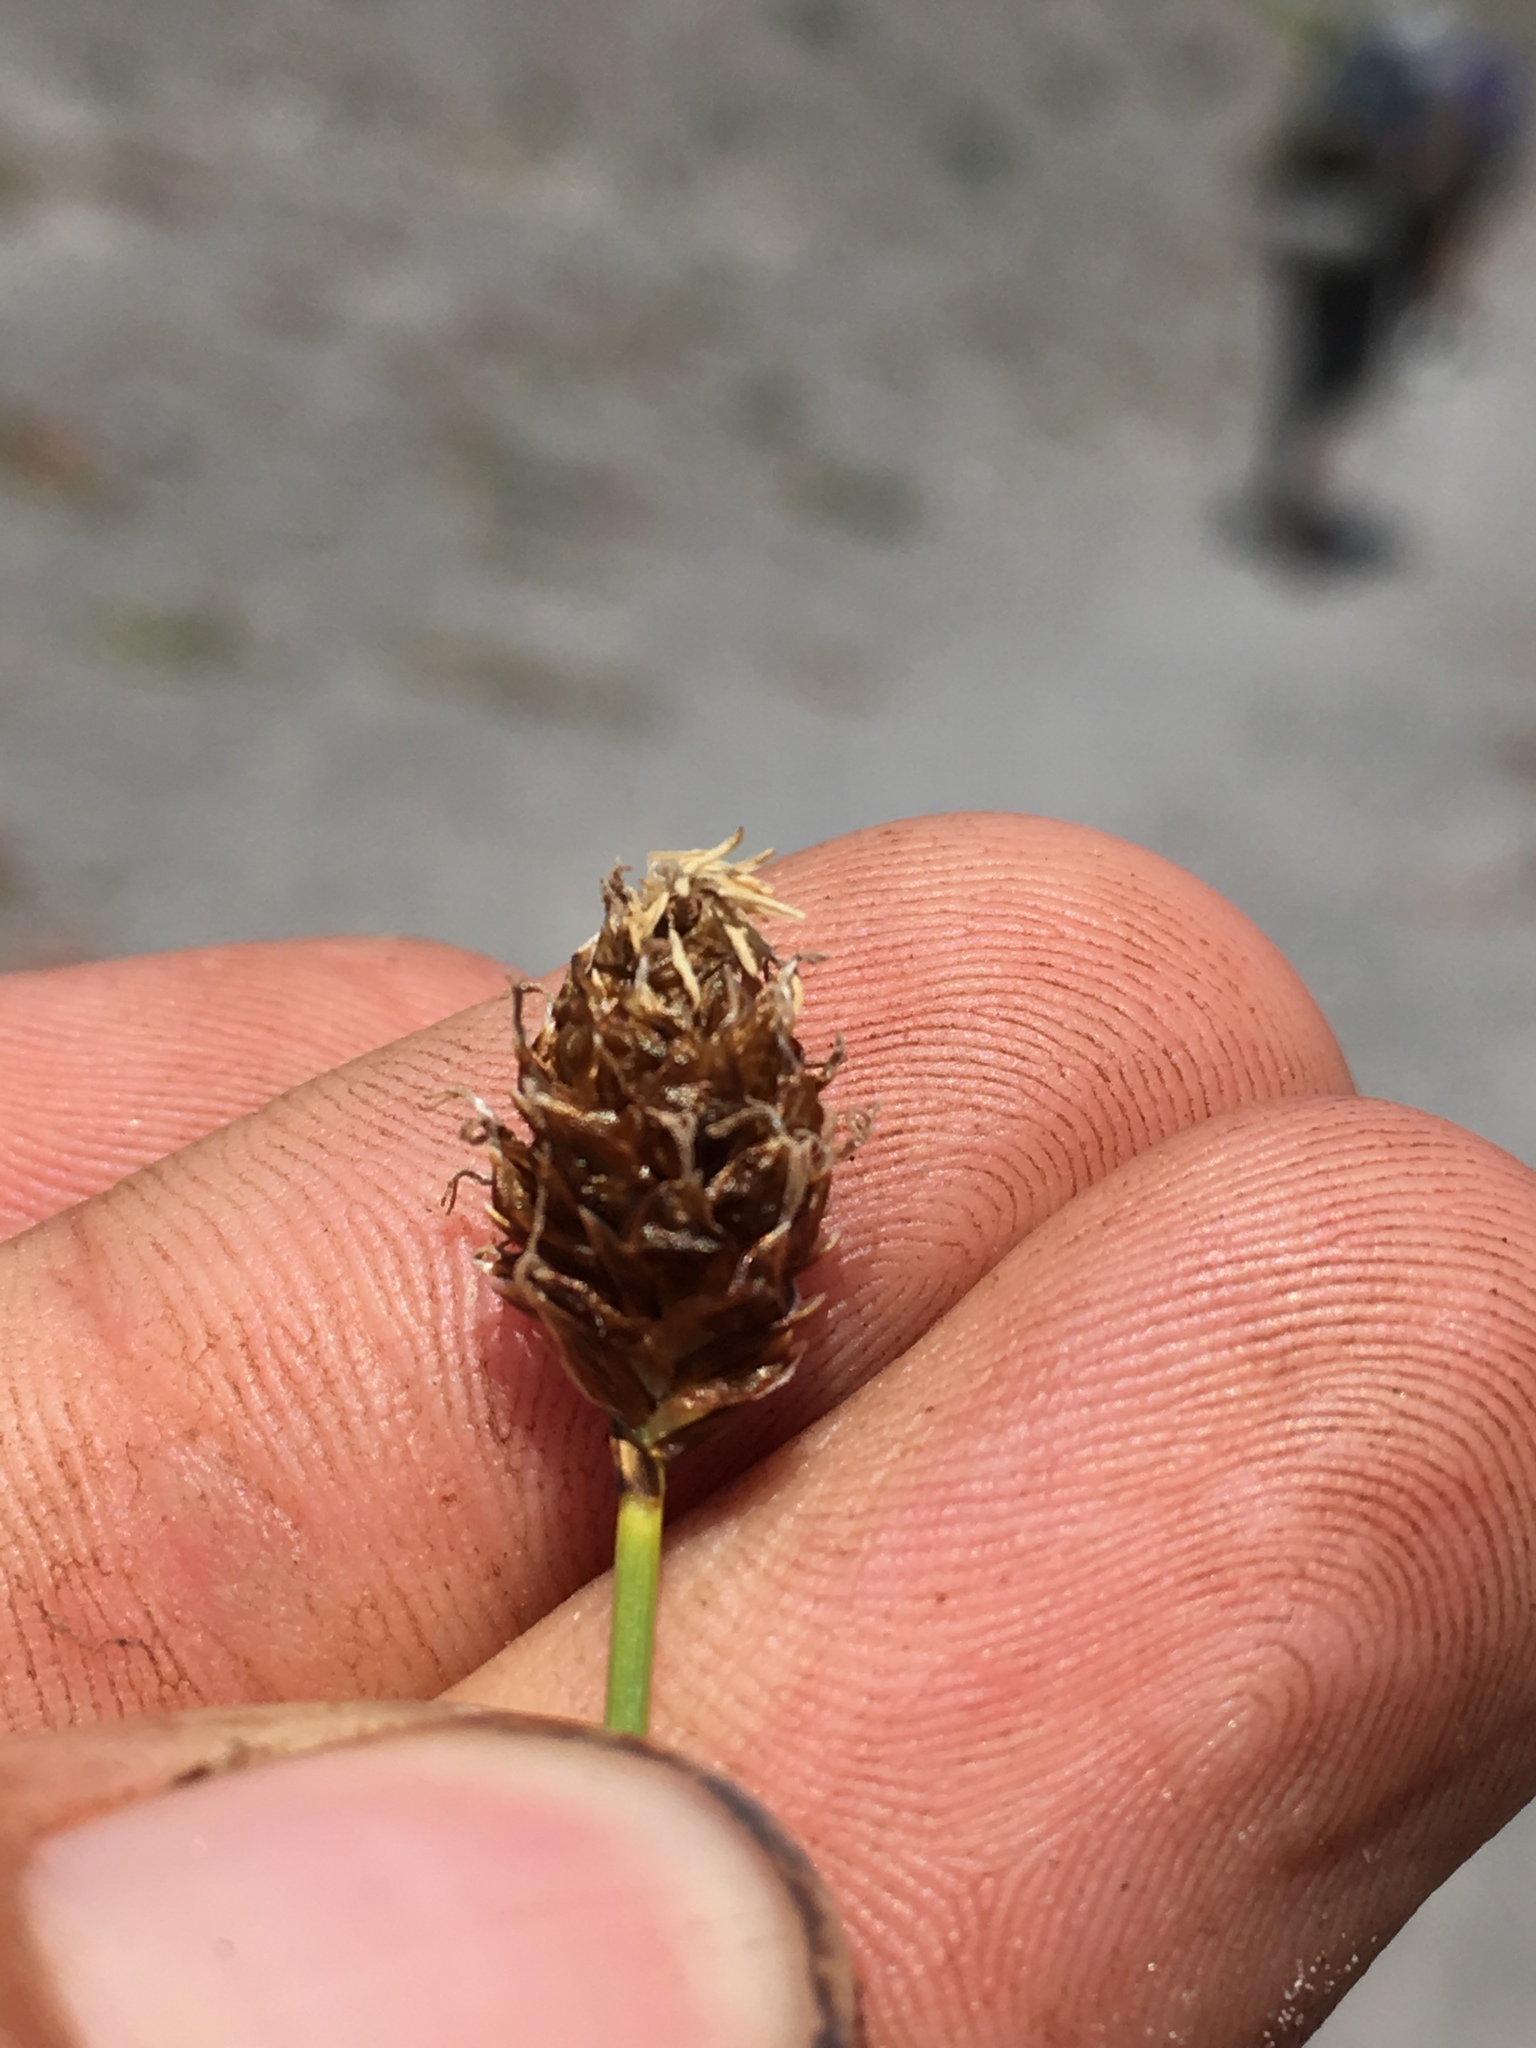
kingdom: Plantae
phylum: Tracheophyta
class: Liliopsida
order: Poales
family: Cyperaceae
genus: Carex
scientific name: Carex breweri
